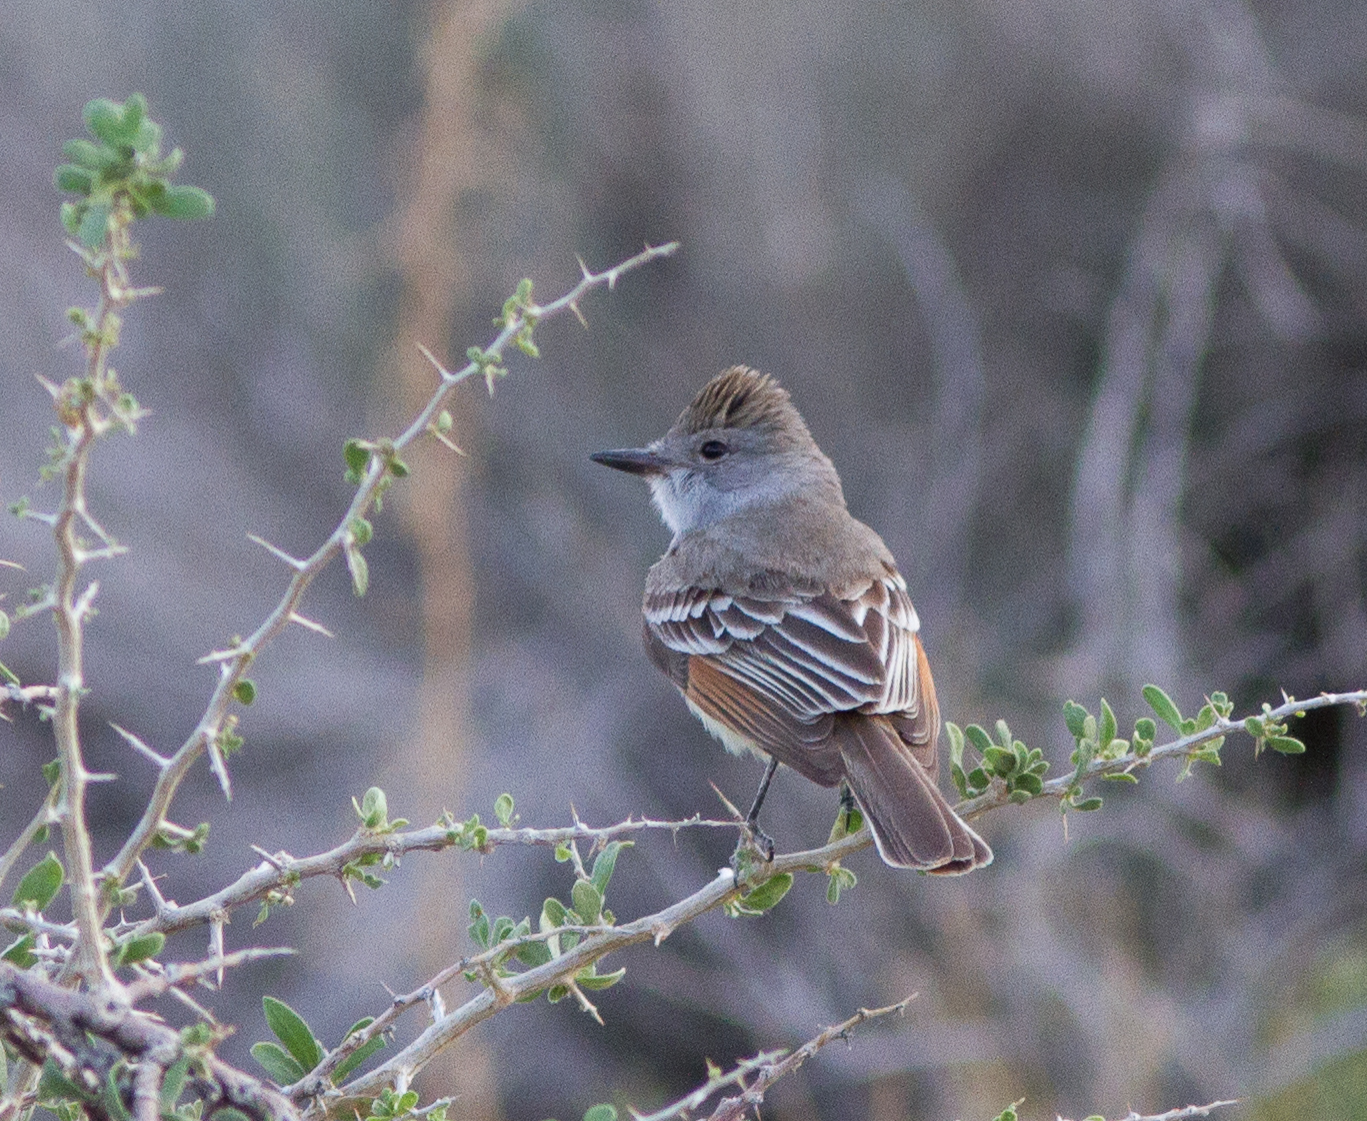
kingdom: Animalia
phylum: Chordata
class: Aves
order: Passeriformes
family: Tyrannidae
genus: Myiarchus
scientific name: Myiarchus cinerascens
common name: Ash-throated flycatcher
